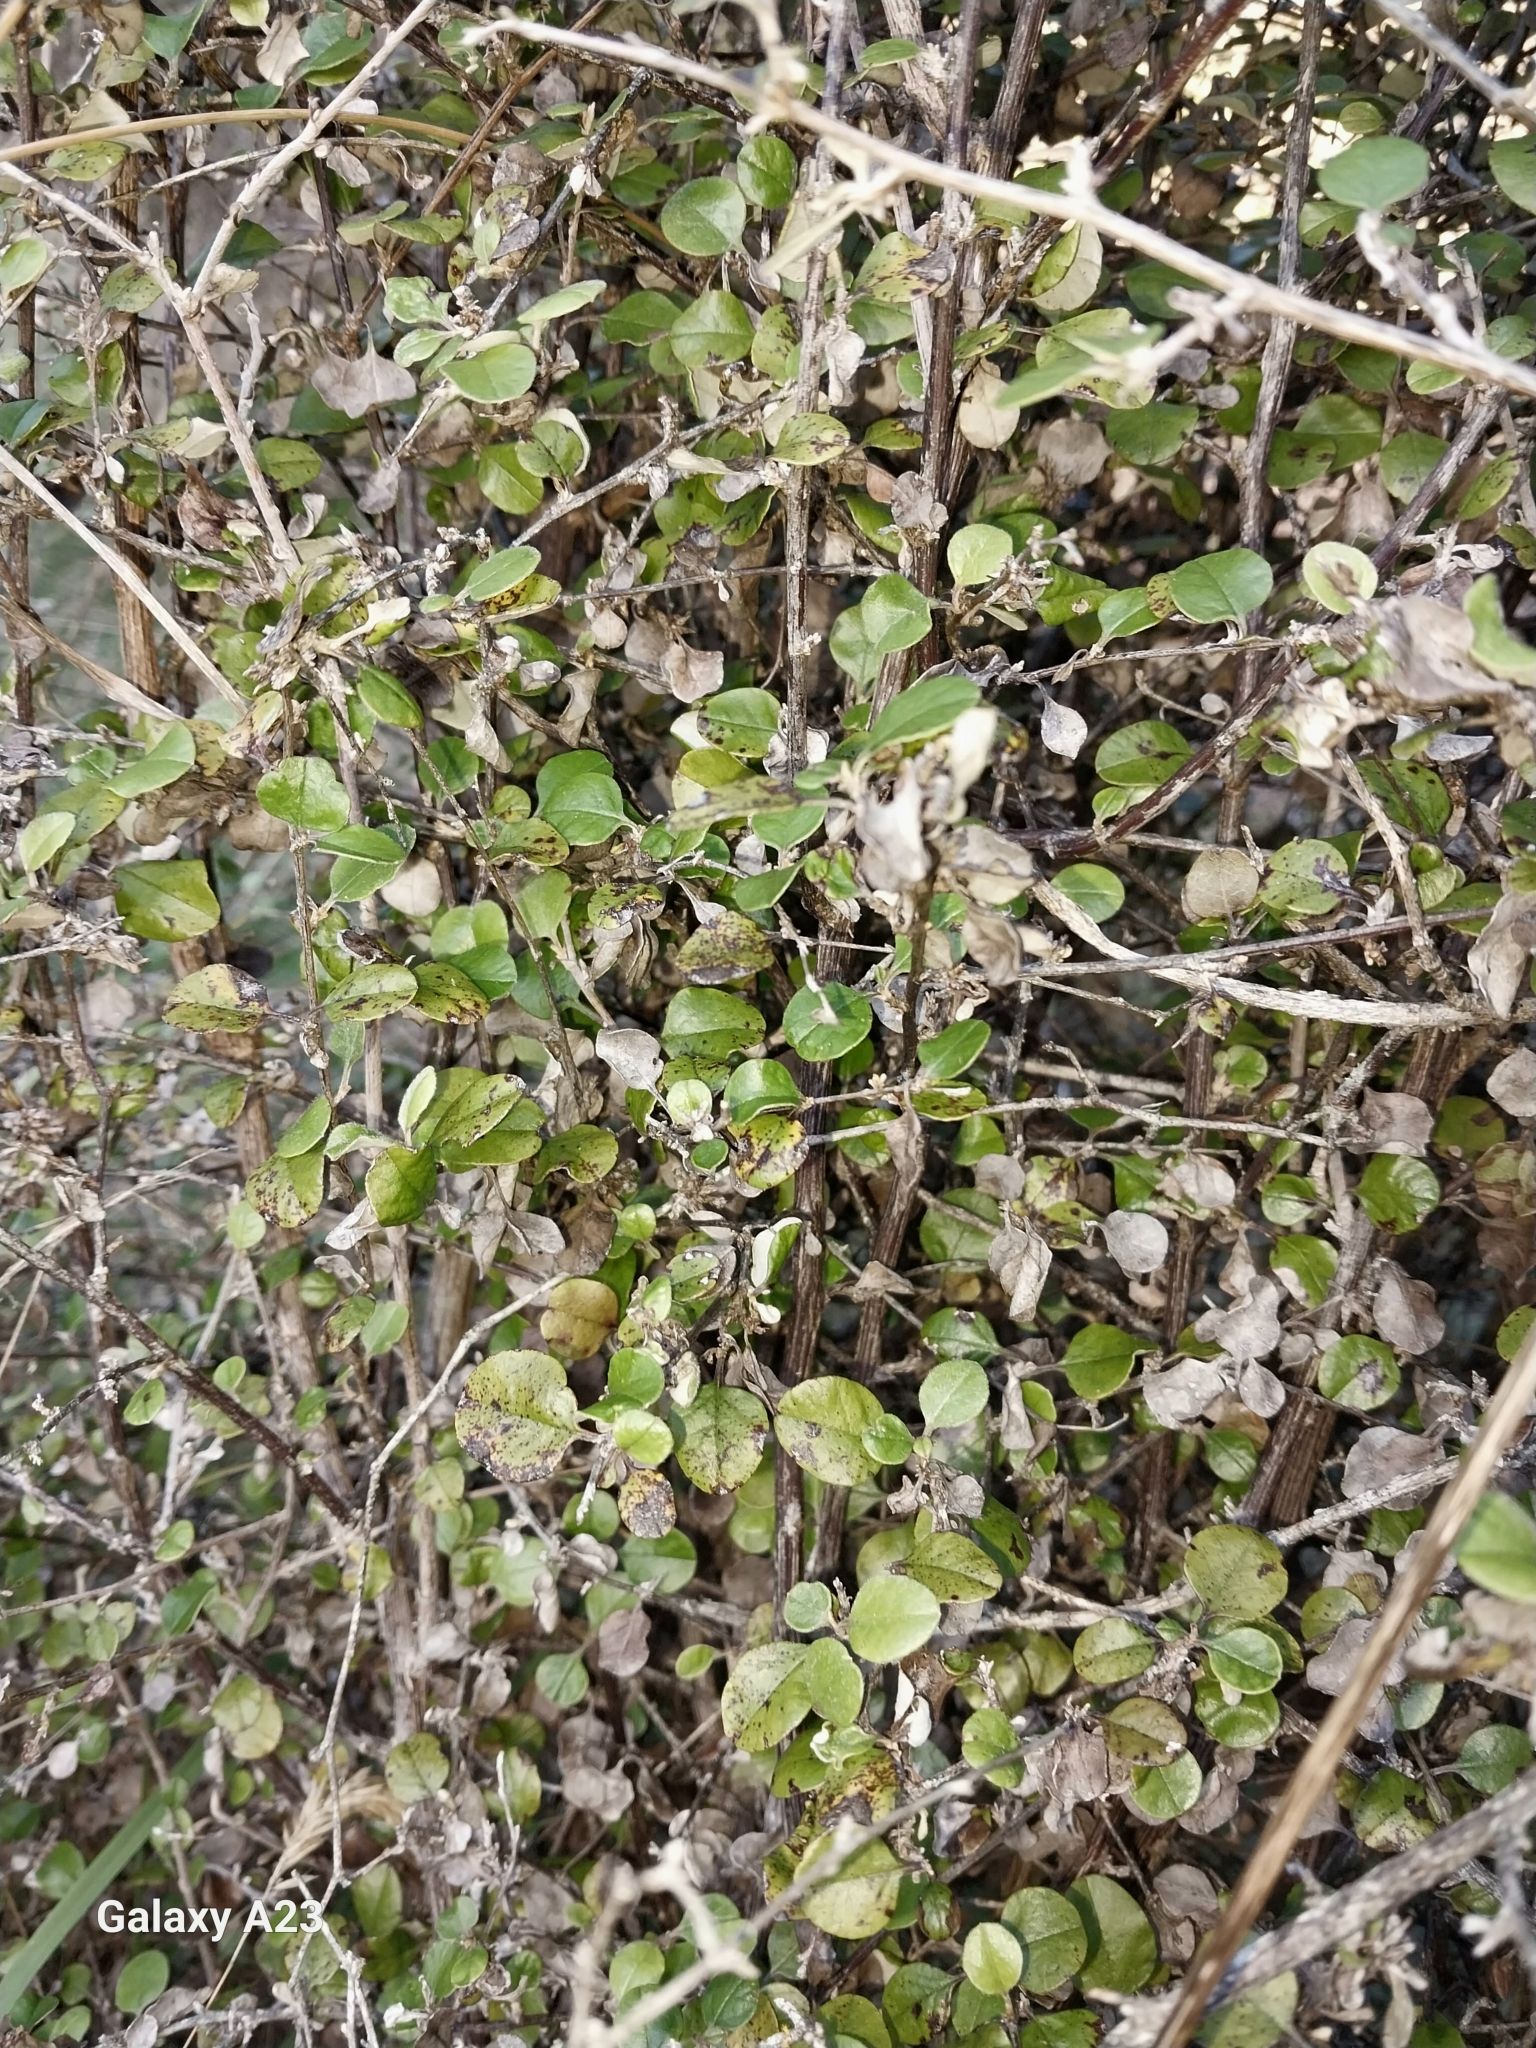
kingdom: Plantae
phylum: Tracheophyta
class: Magnoliopsida
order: Asterales
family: Asteraceae
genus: Ozothamnus
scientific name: Ozothamnus glomeratus
